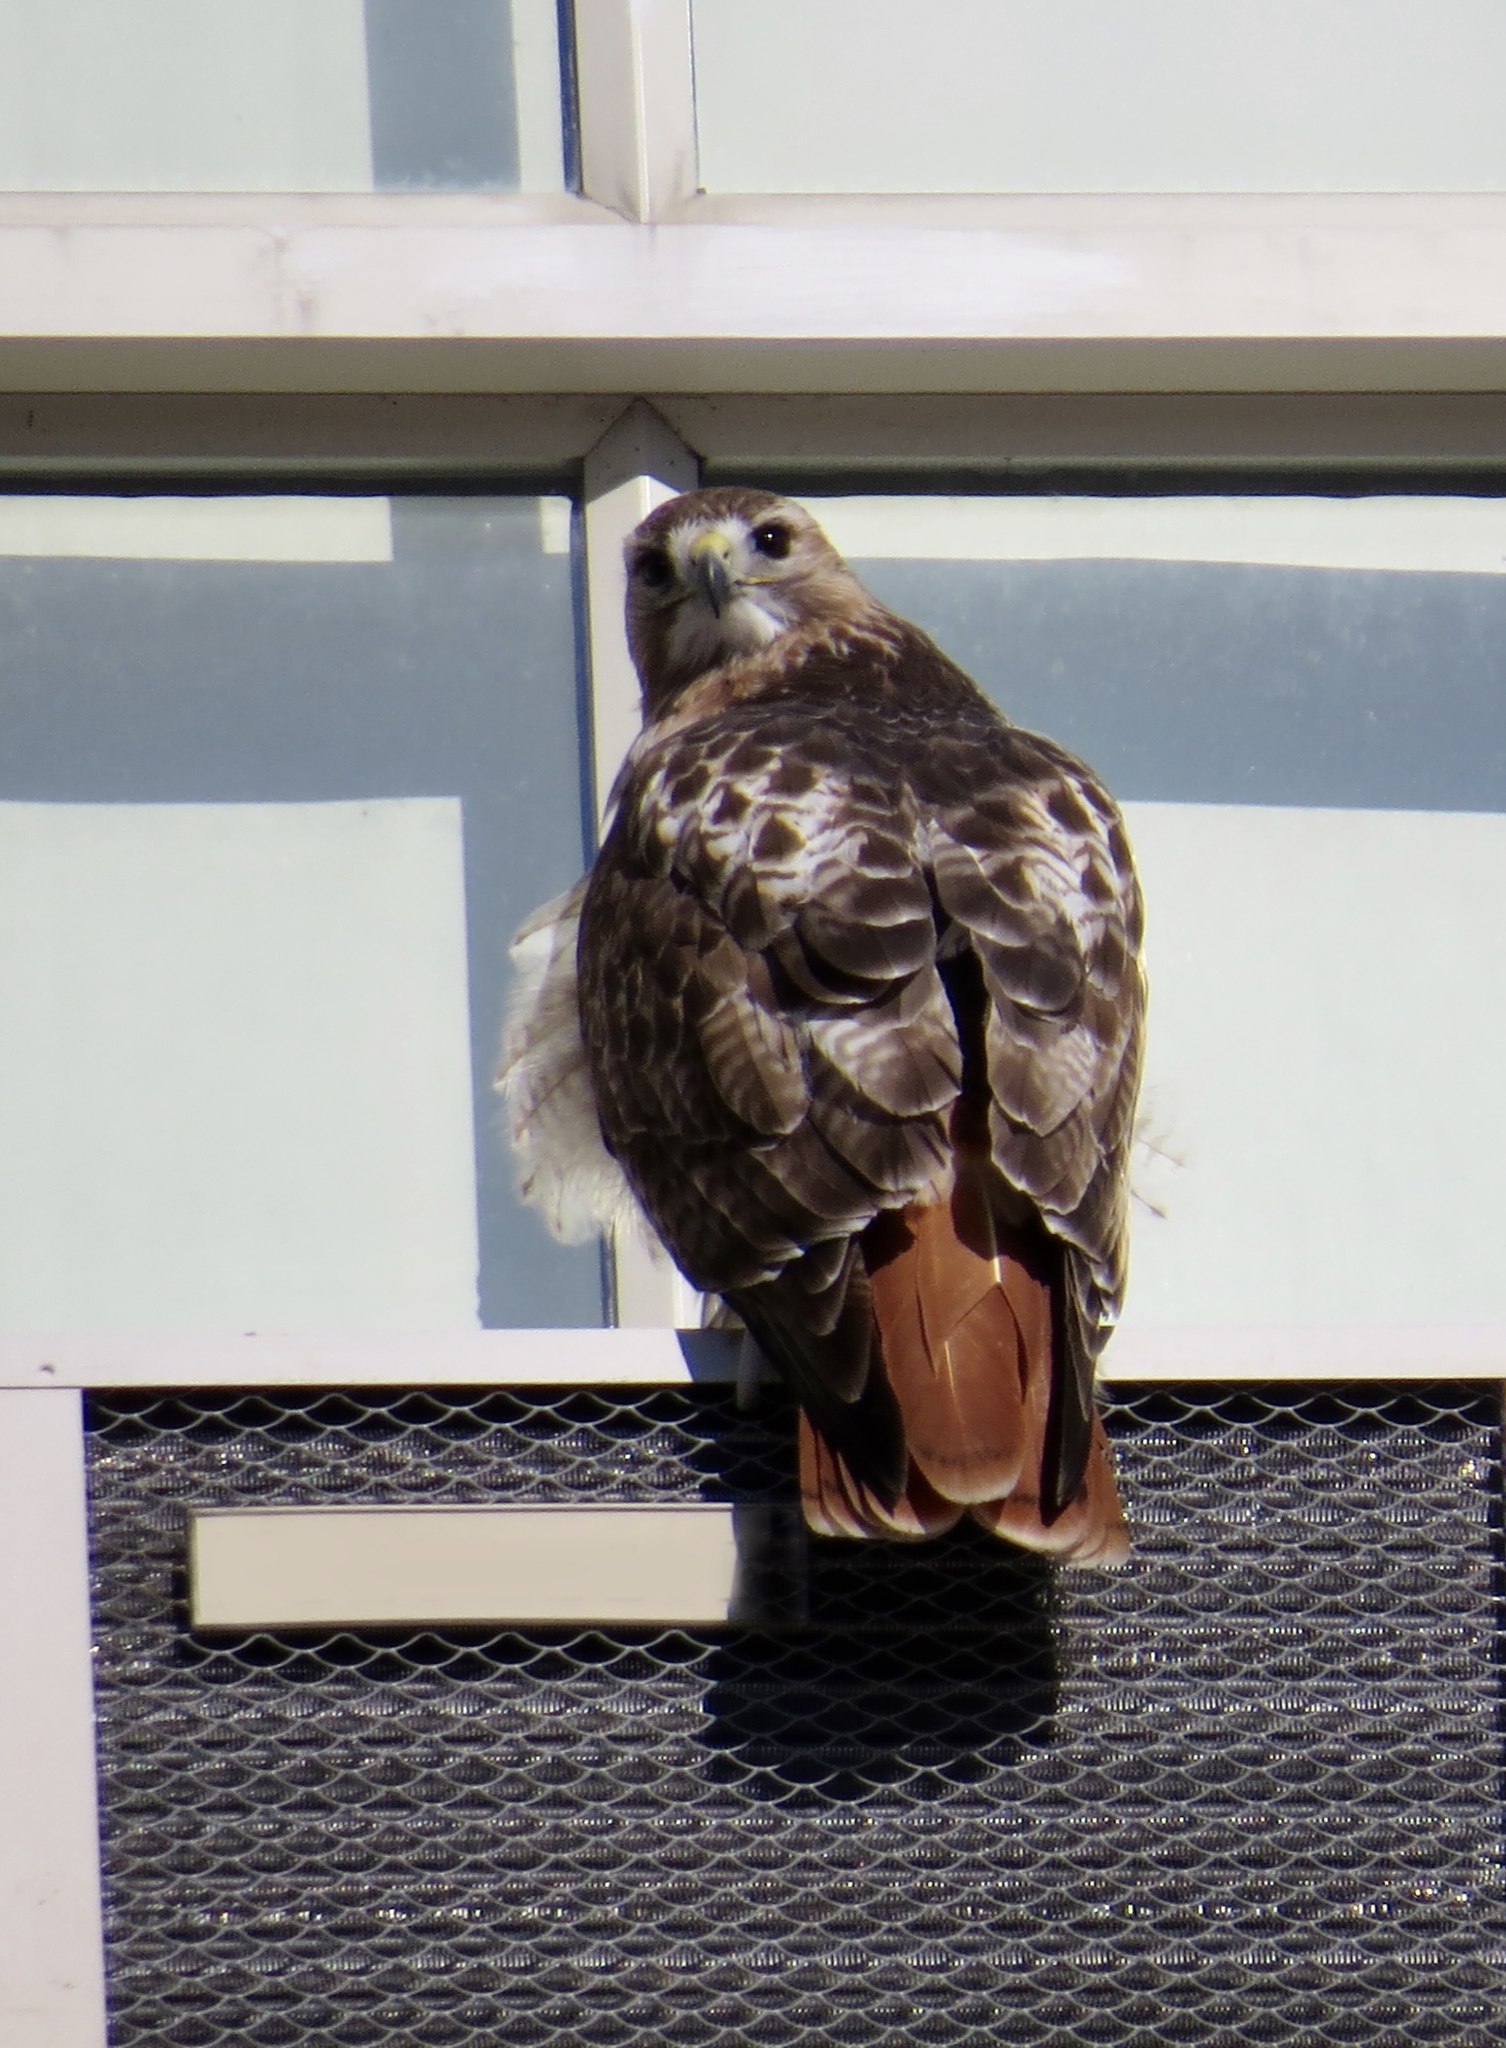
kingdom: Animalia
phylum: Chordata
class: Aves
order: Accipitriformes
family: Accipitridae
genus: Buteo
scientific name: Buteo jamaicensis
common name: Red-tailed hawk
